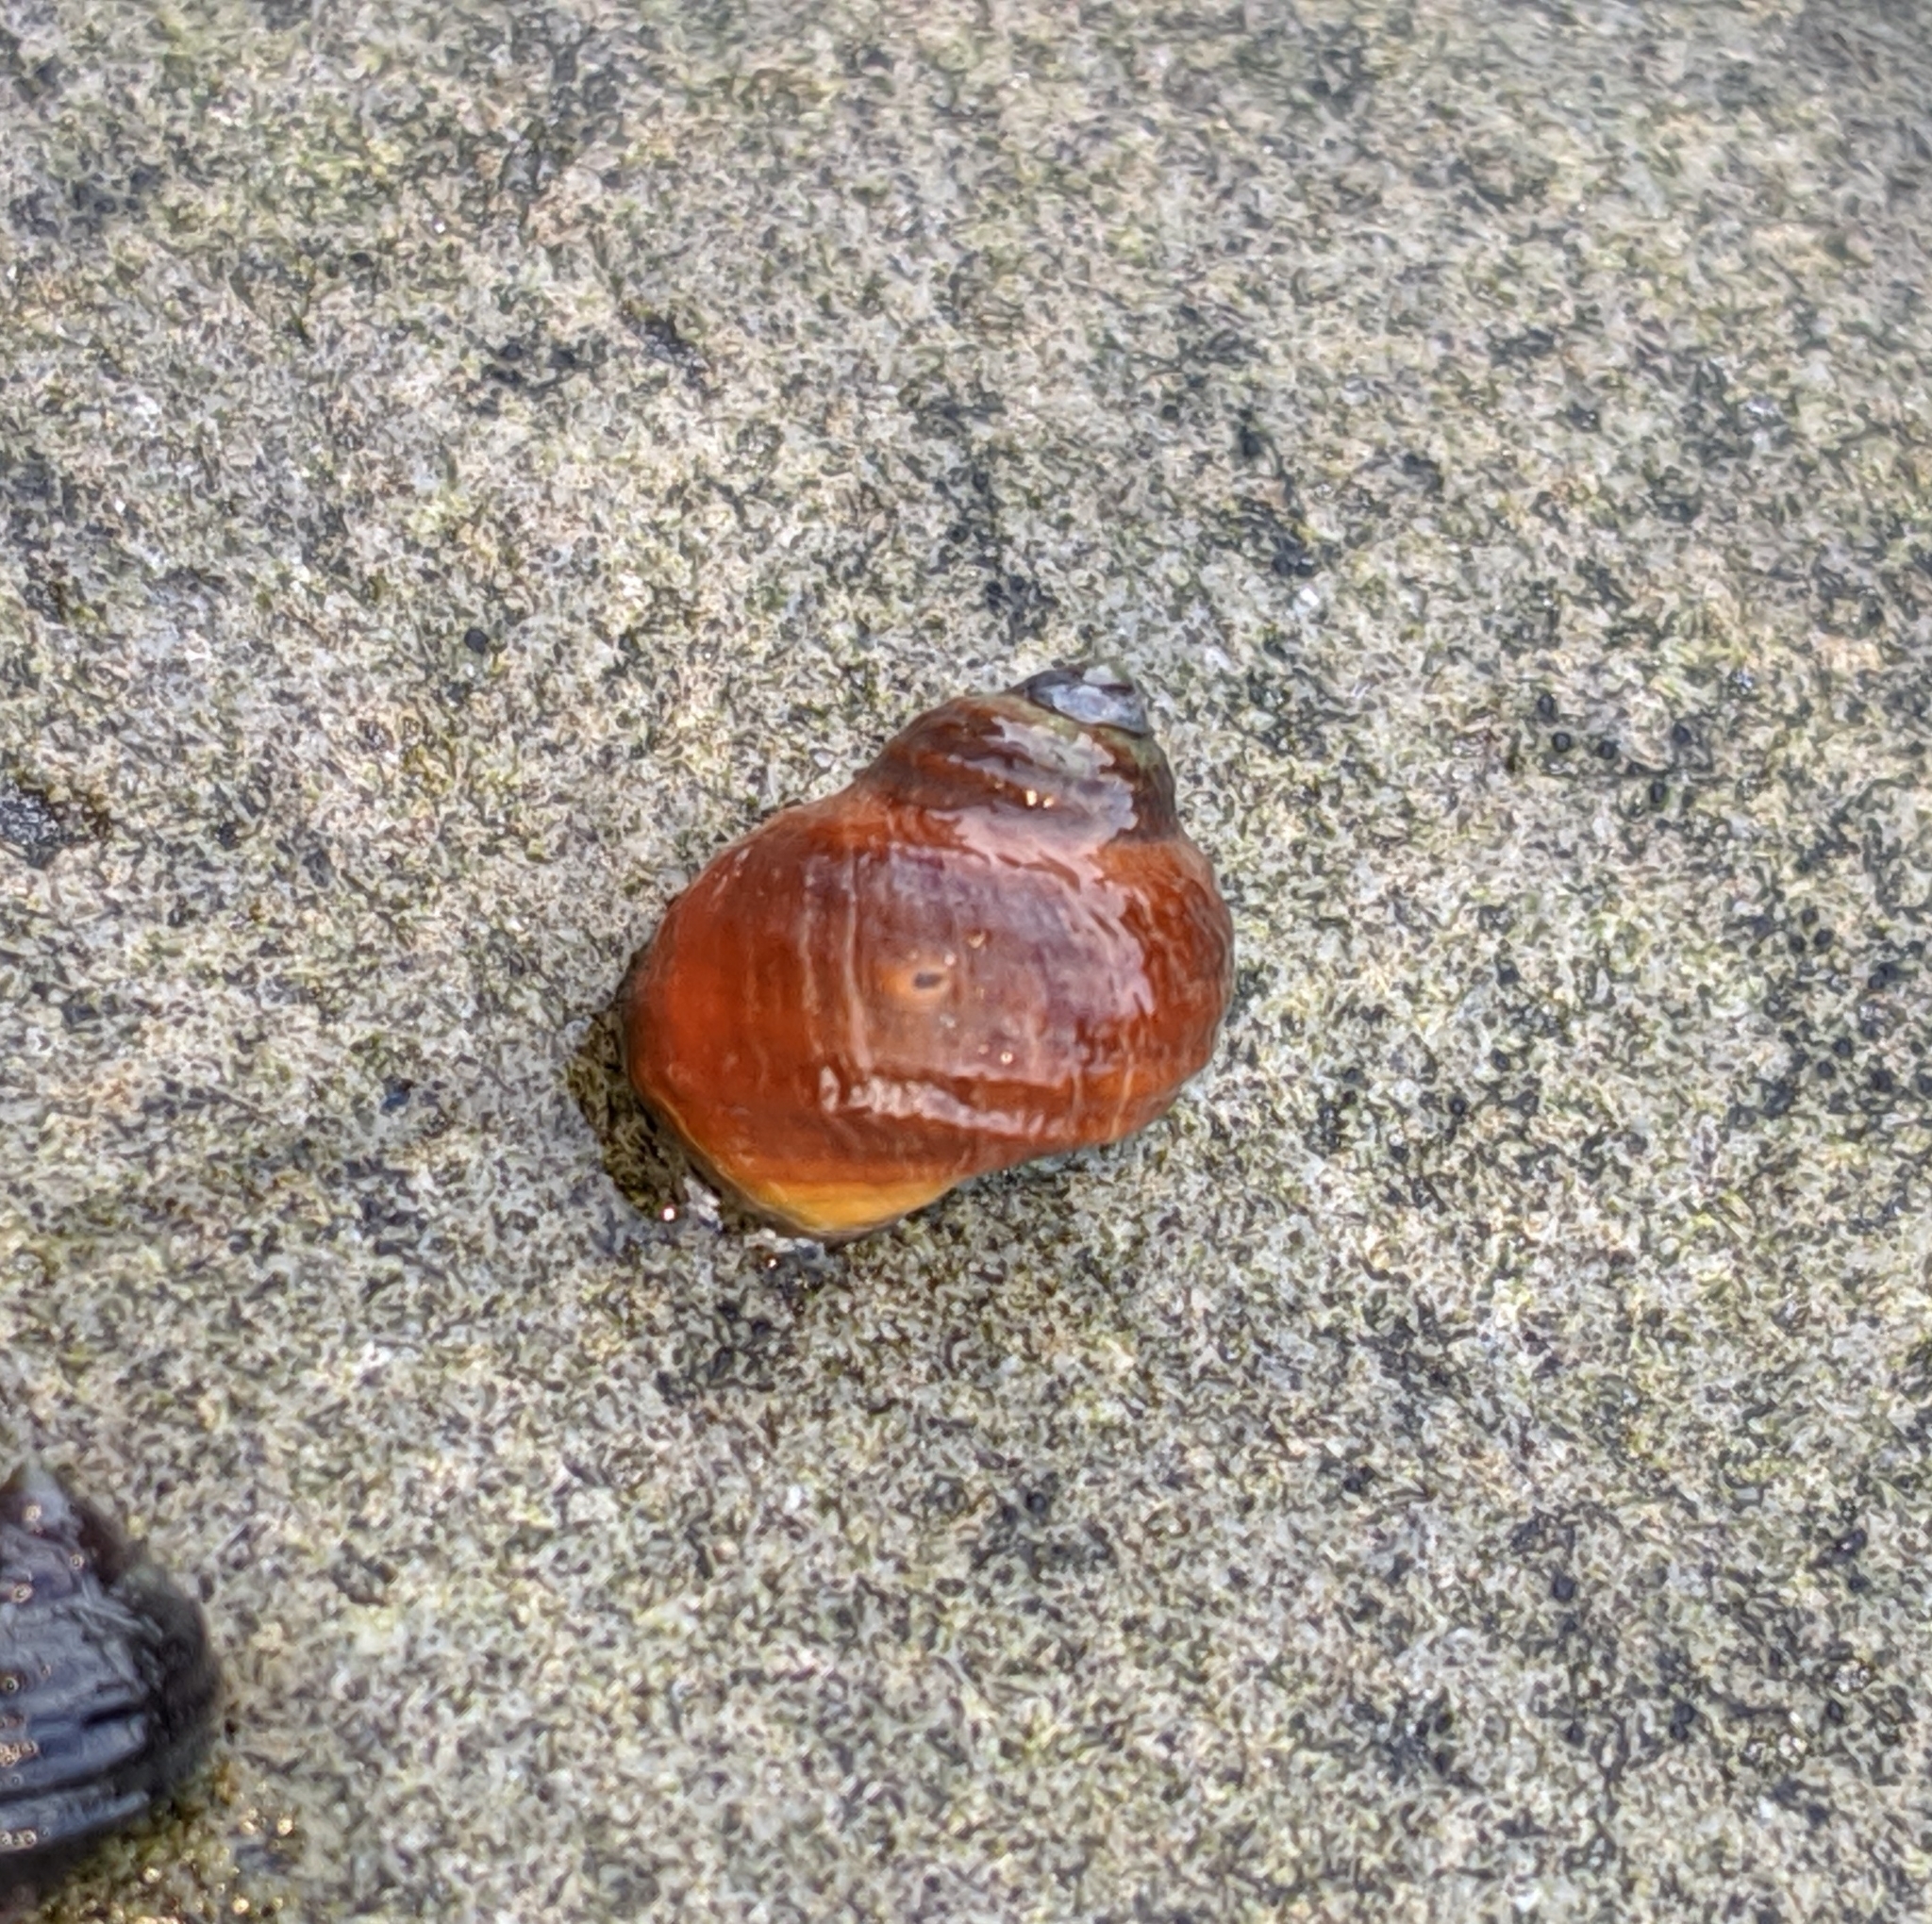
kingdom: Animalia
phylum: Mollusca
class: Gastropoda
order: Littorinimorpha
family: Littorinidae
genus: Littorina
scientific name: Littorina sitkana
